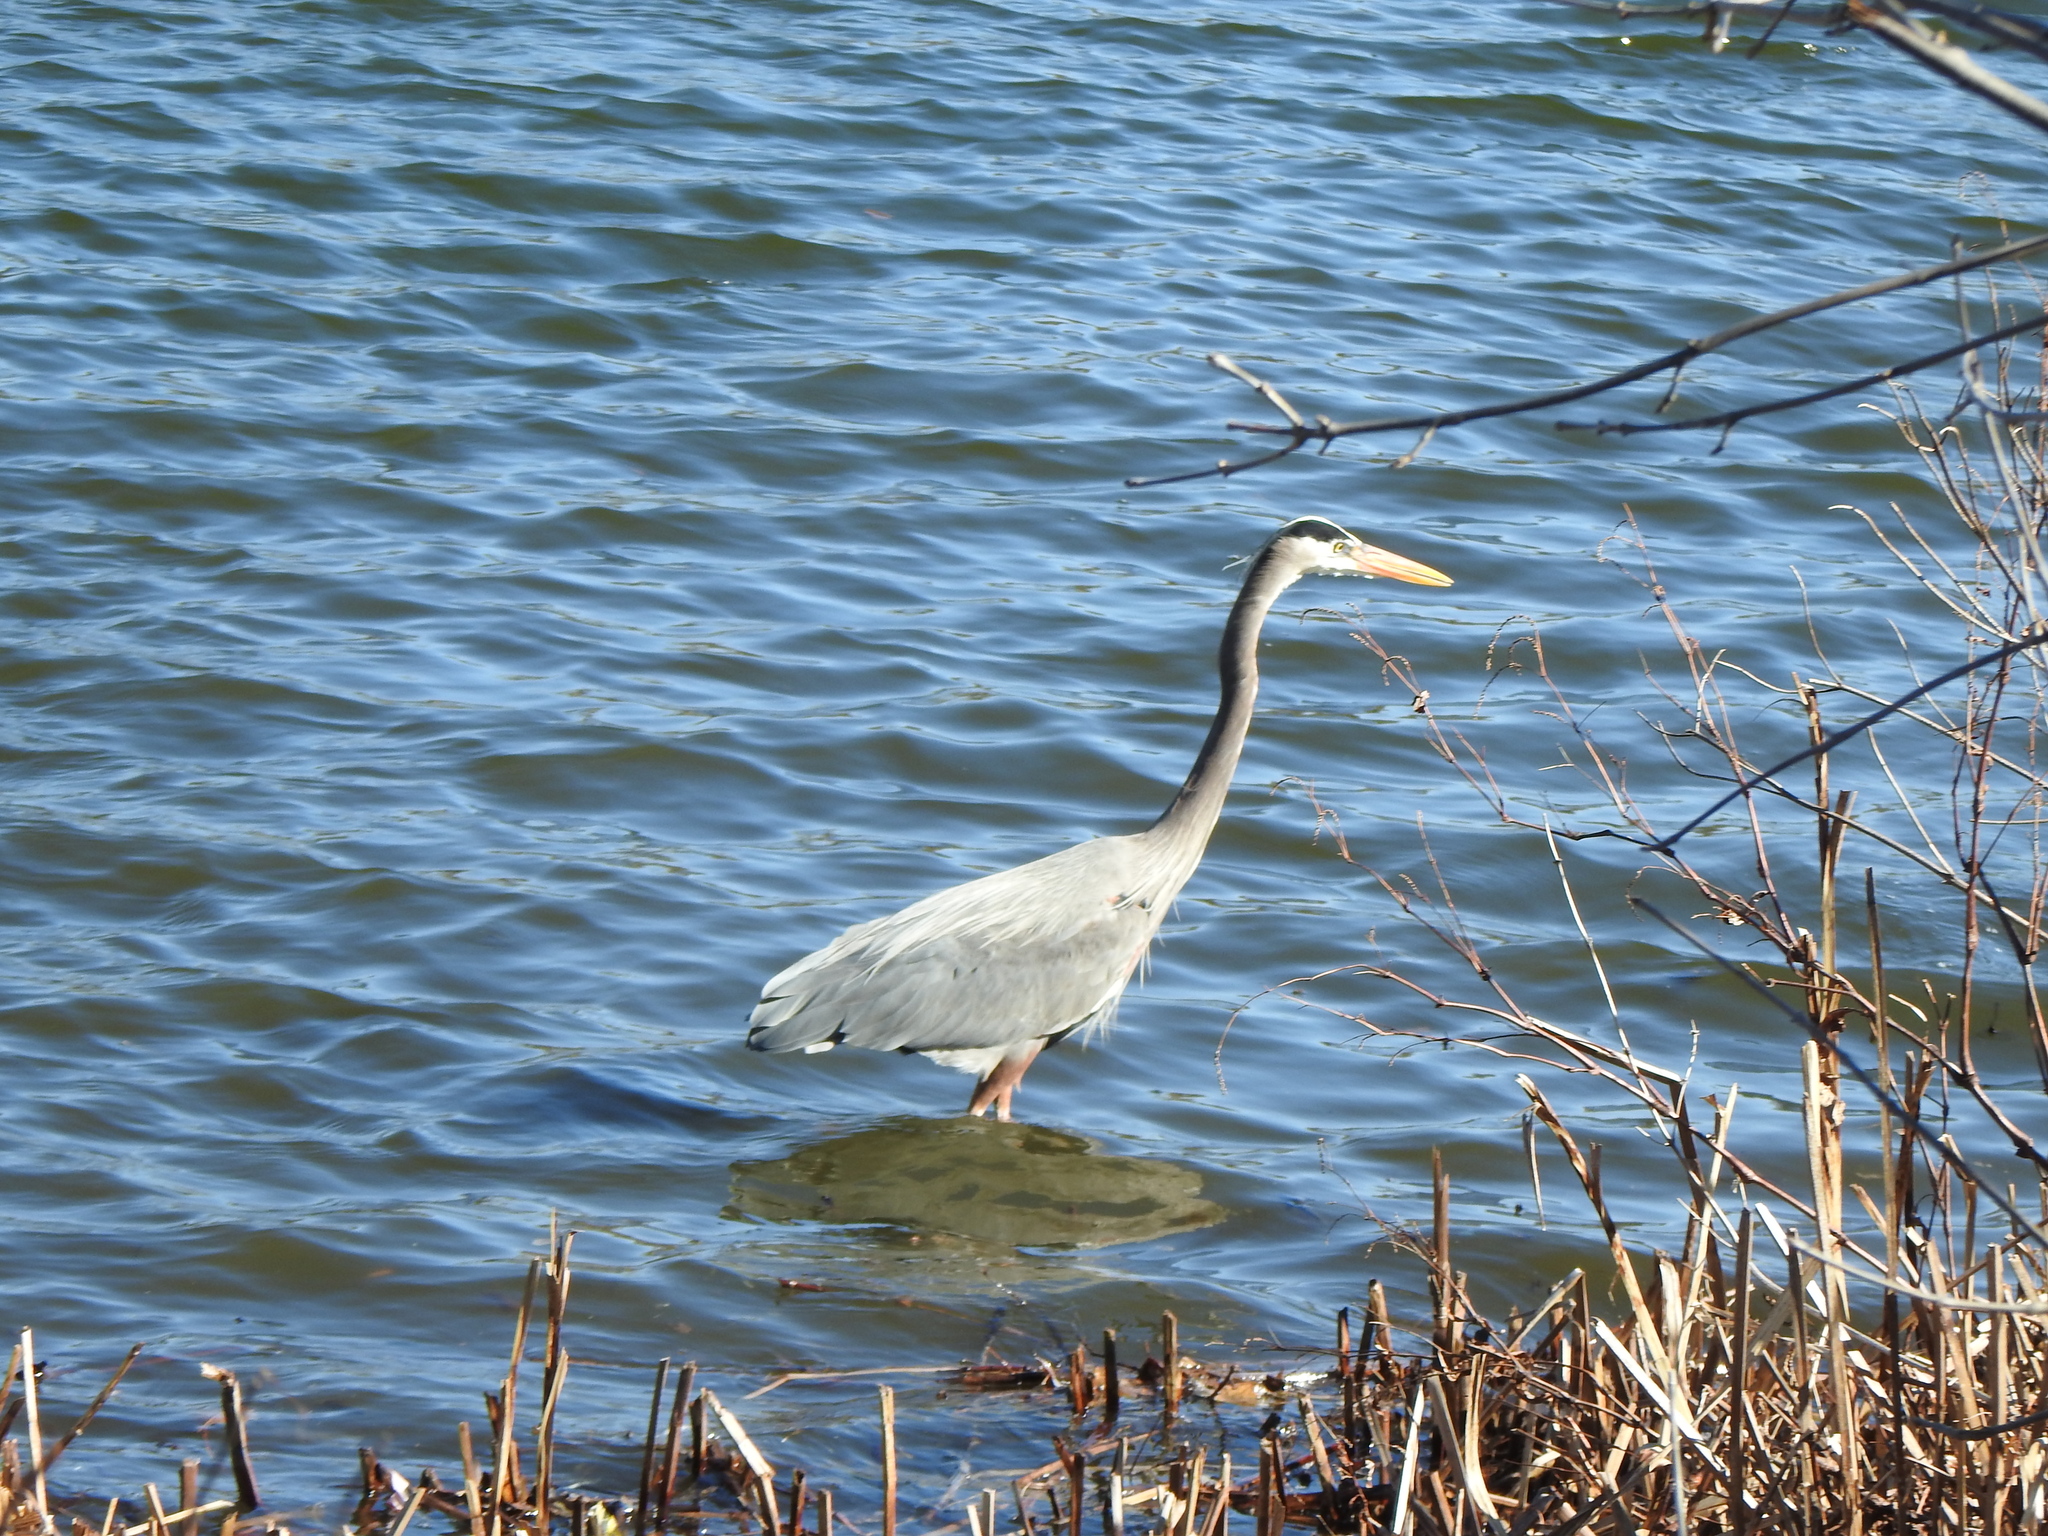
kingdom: Animalia
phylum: Chordata
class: Aves
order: Pelecaniformes
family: Ardeidae
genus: Ardea
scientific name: Ardea herodias
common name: Great blue heron
